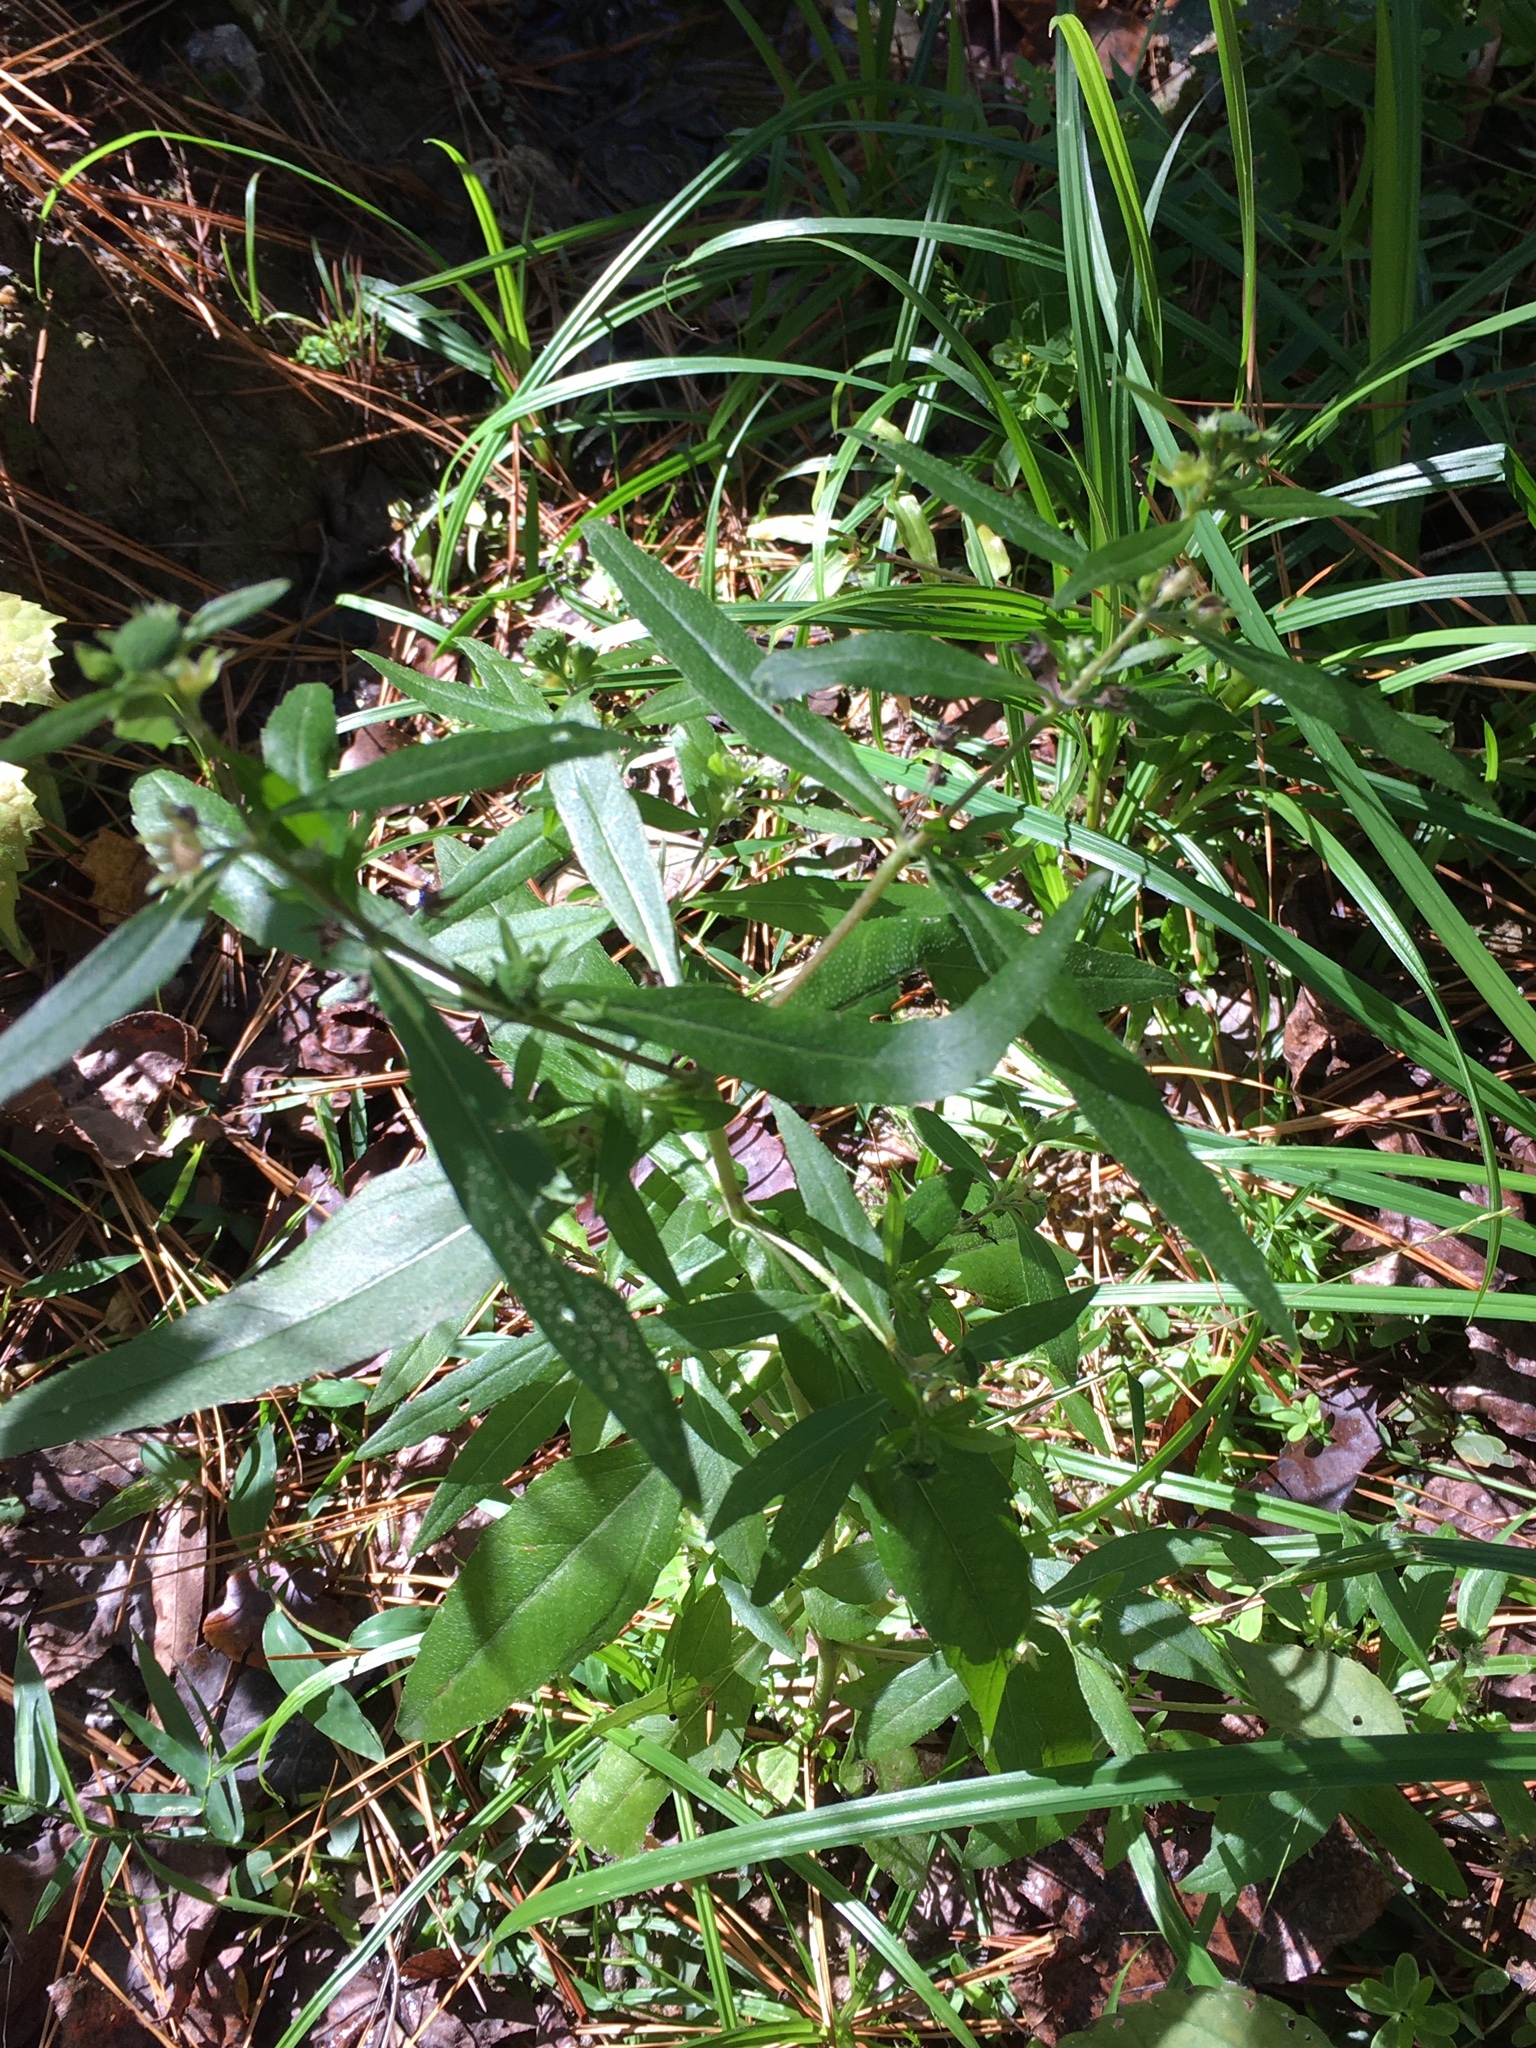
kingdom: Plantae
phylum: Tracheophyta
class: Magnoliopsida
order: Asterales
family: Asteraceae
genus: Eclipta
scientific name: Eclipta prostrata
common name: False daisy
